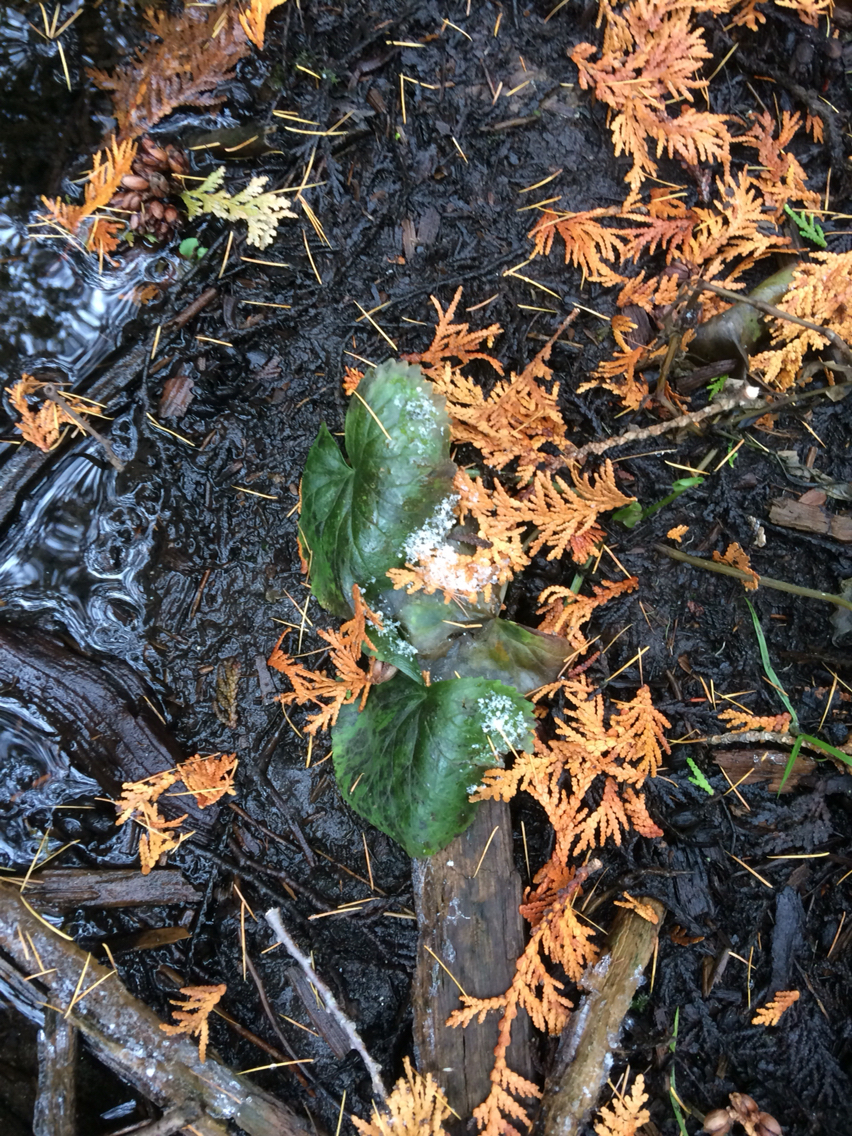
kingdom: Plantae
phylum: Tracheophyta
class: Magnoliopsida
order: Ranunculales
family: Ranunculaceae
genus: Caltha
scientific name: Caltha palustris
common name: Marsh marigold
